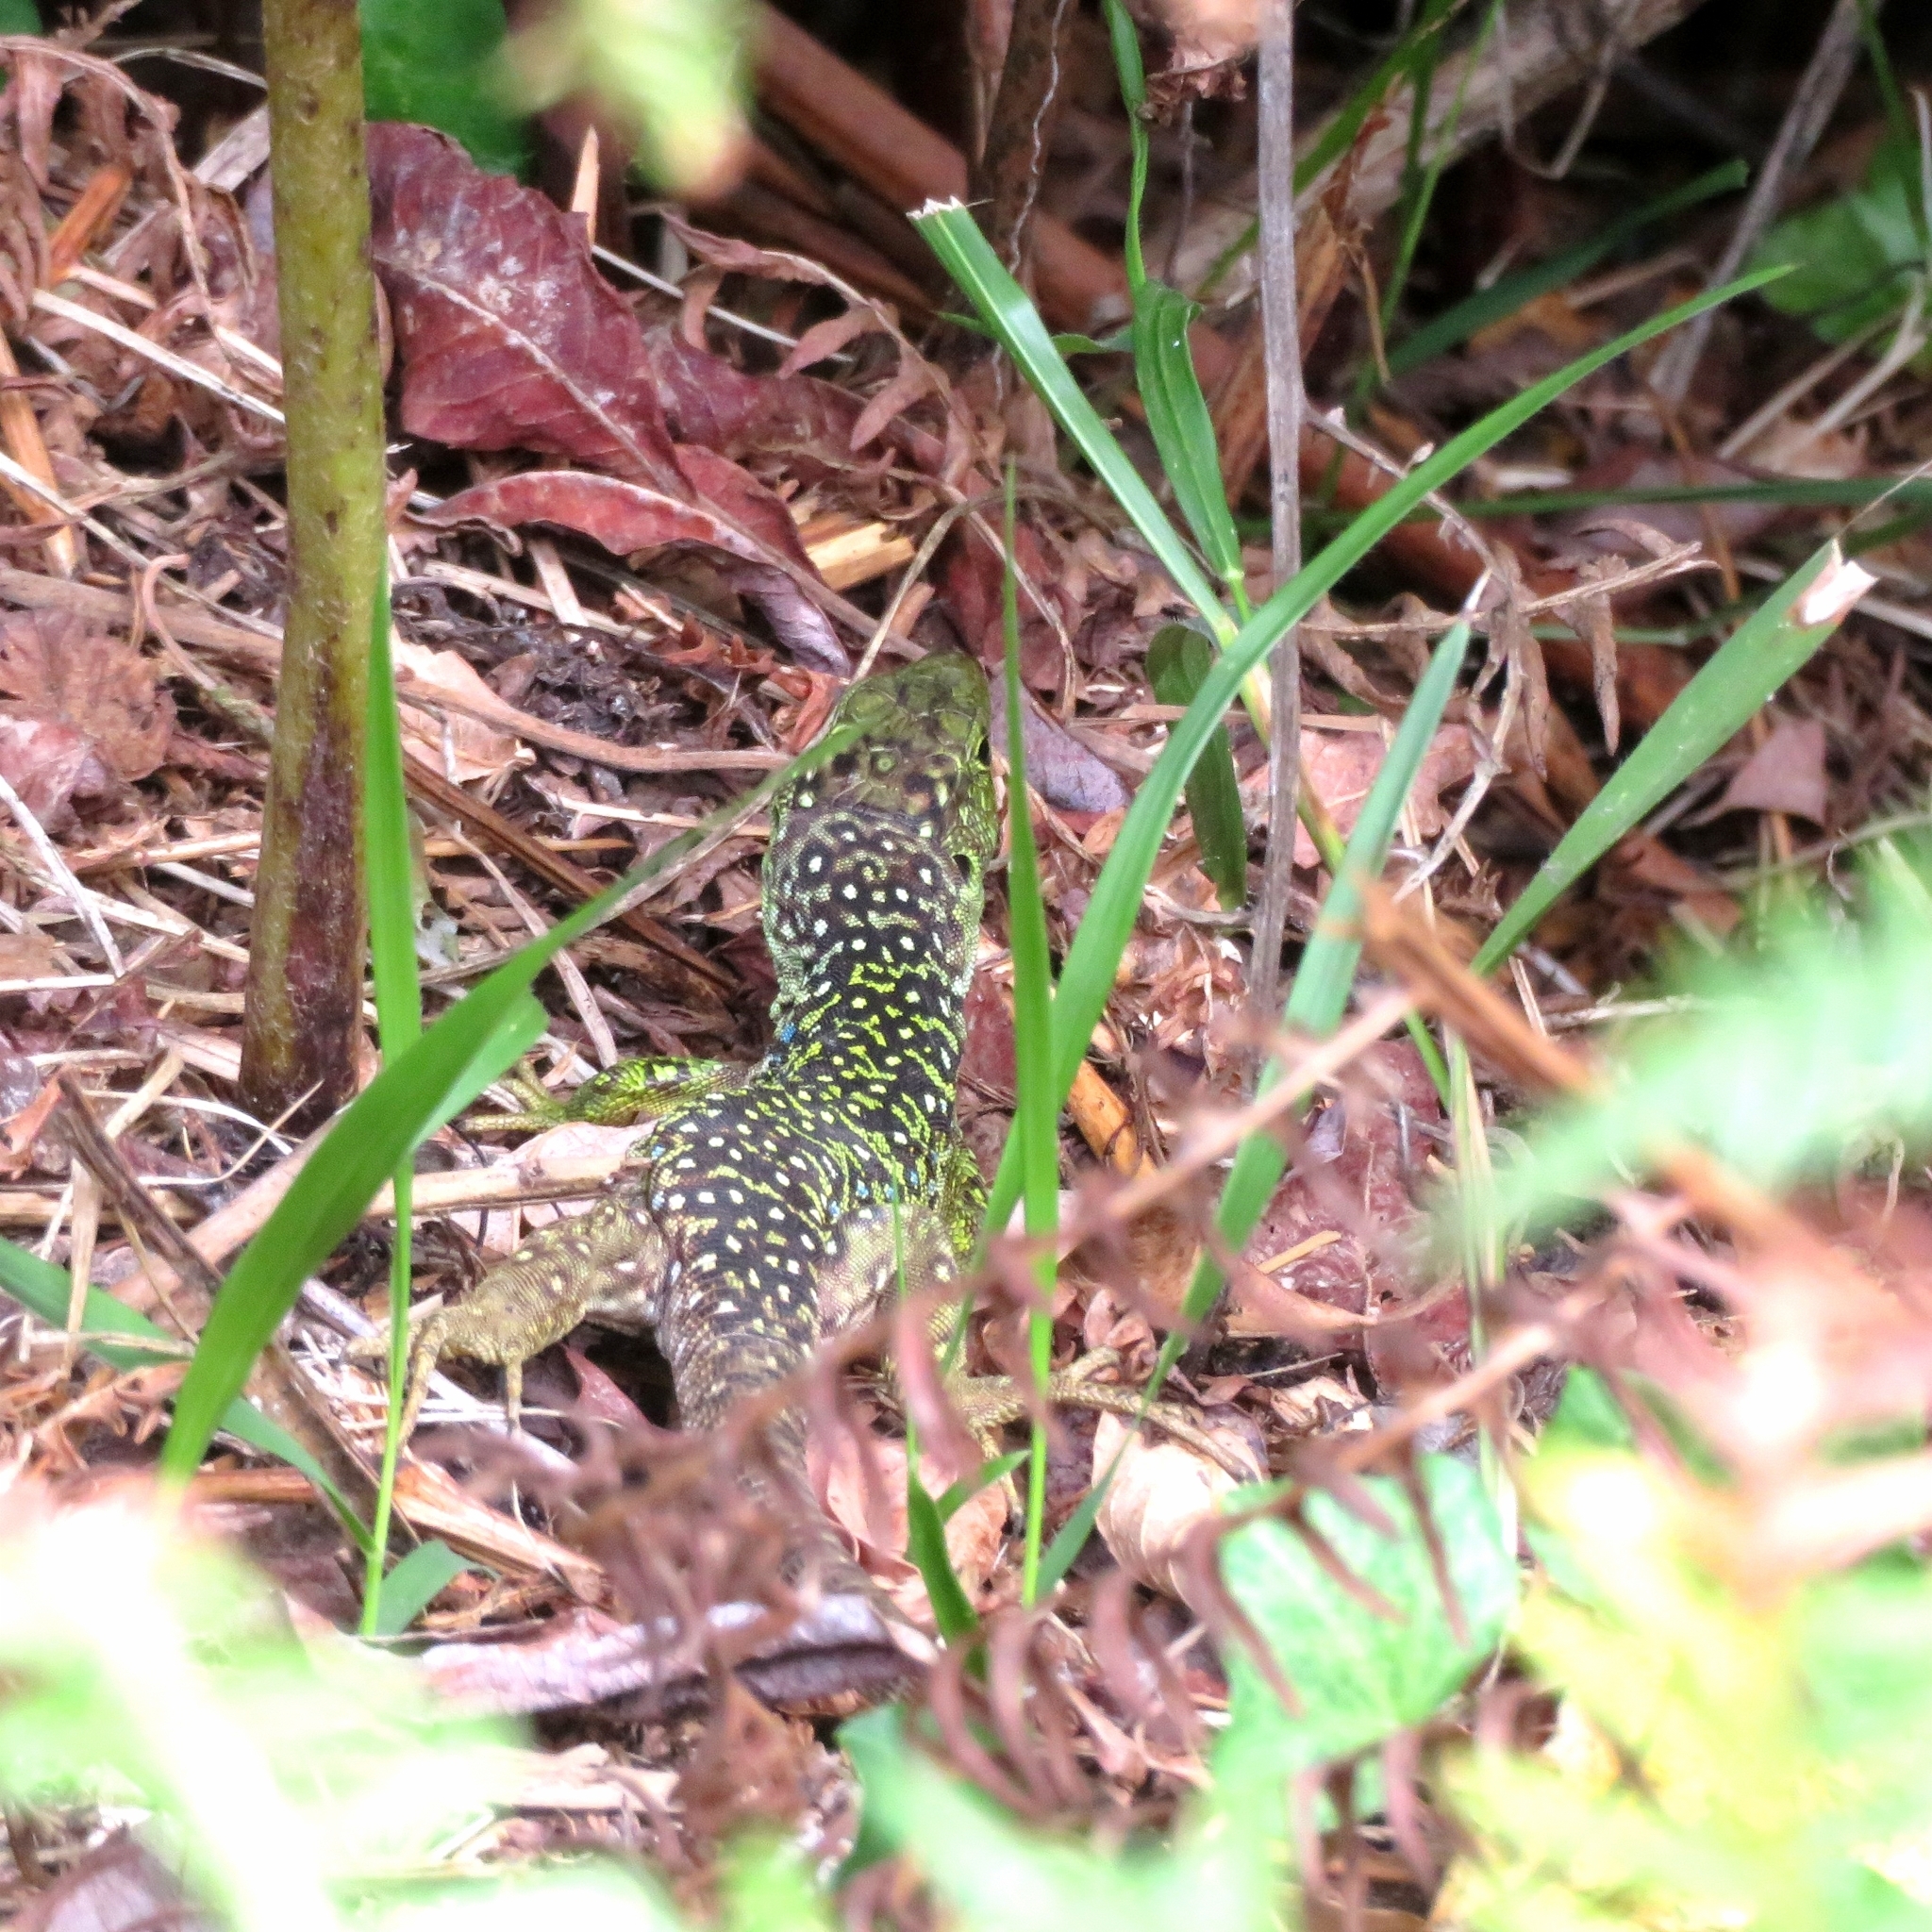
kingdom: Animalia
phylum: Chordata
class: Squamata
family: Lacertidae
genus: Timon
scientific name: Timon lepidus
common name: Ocellated lizard
